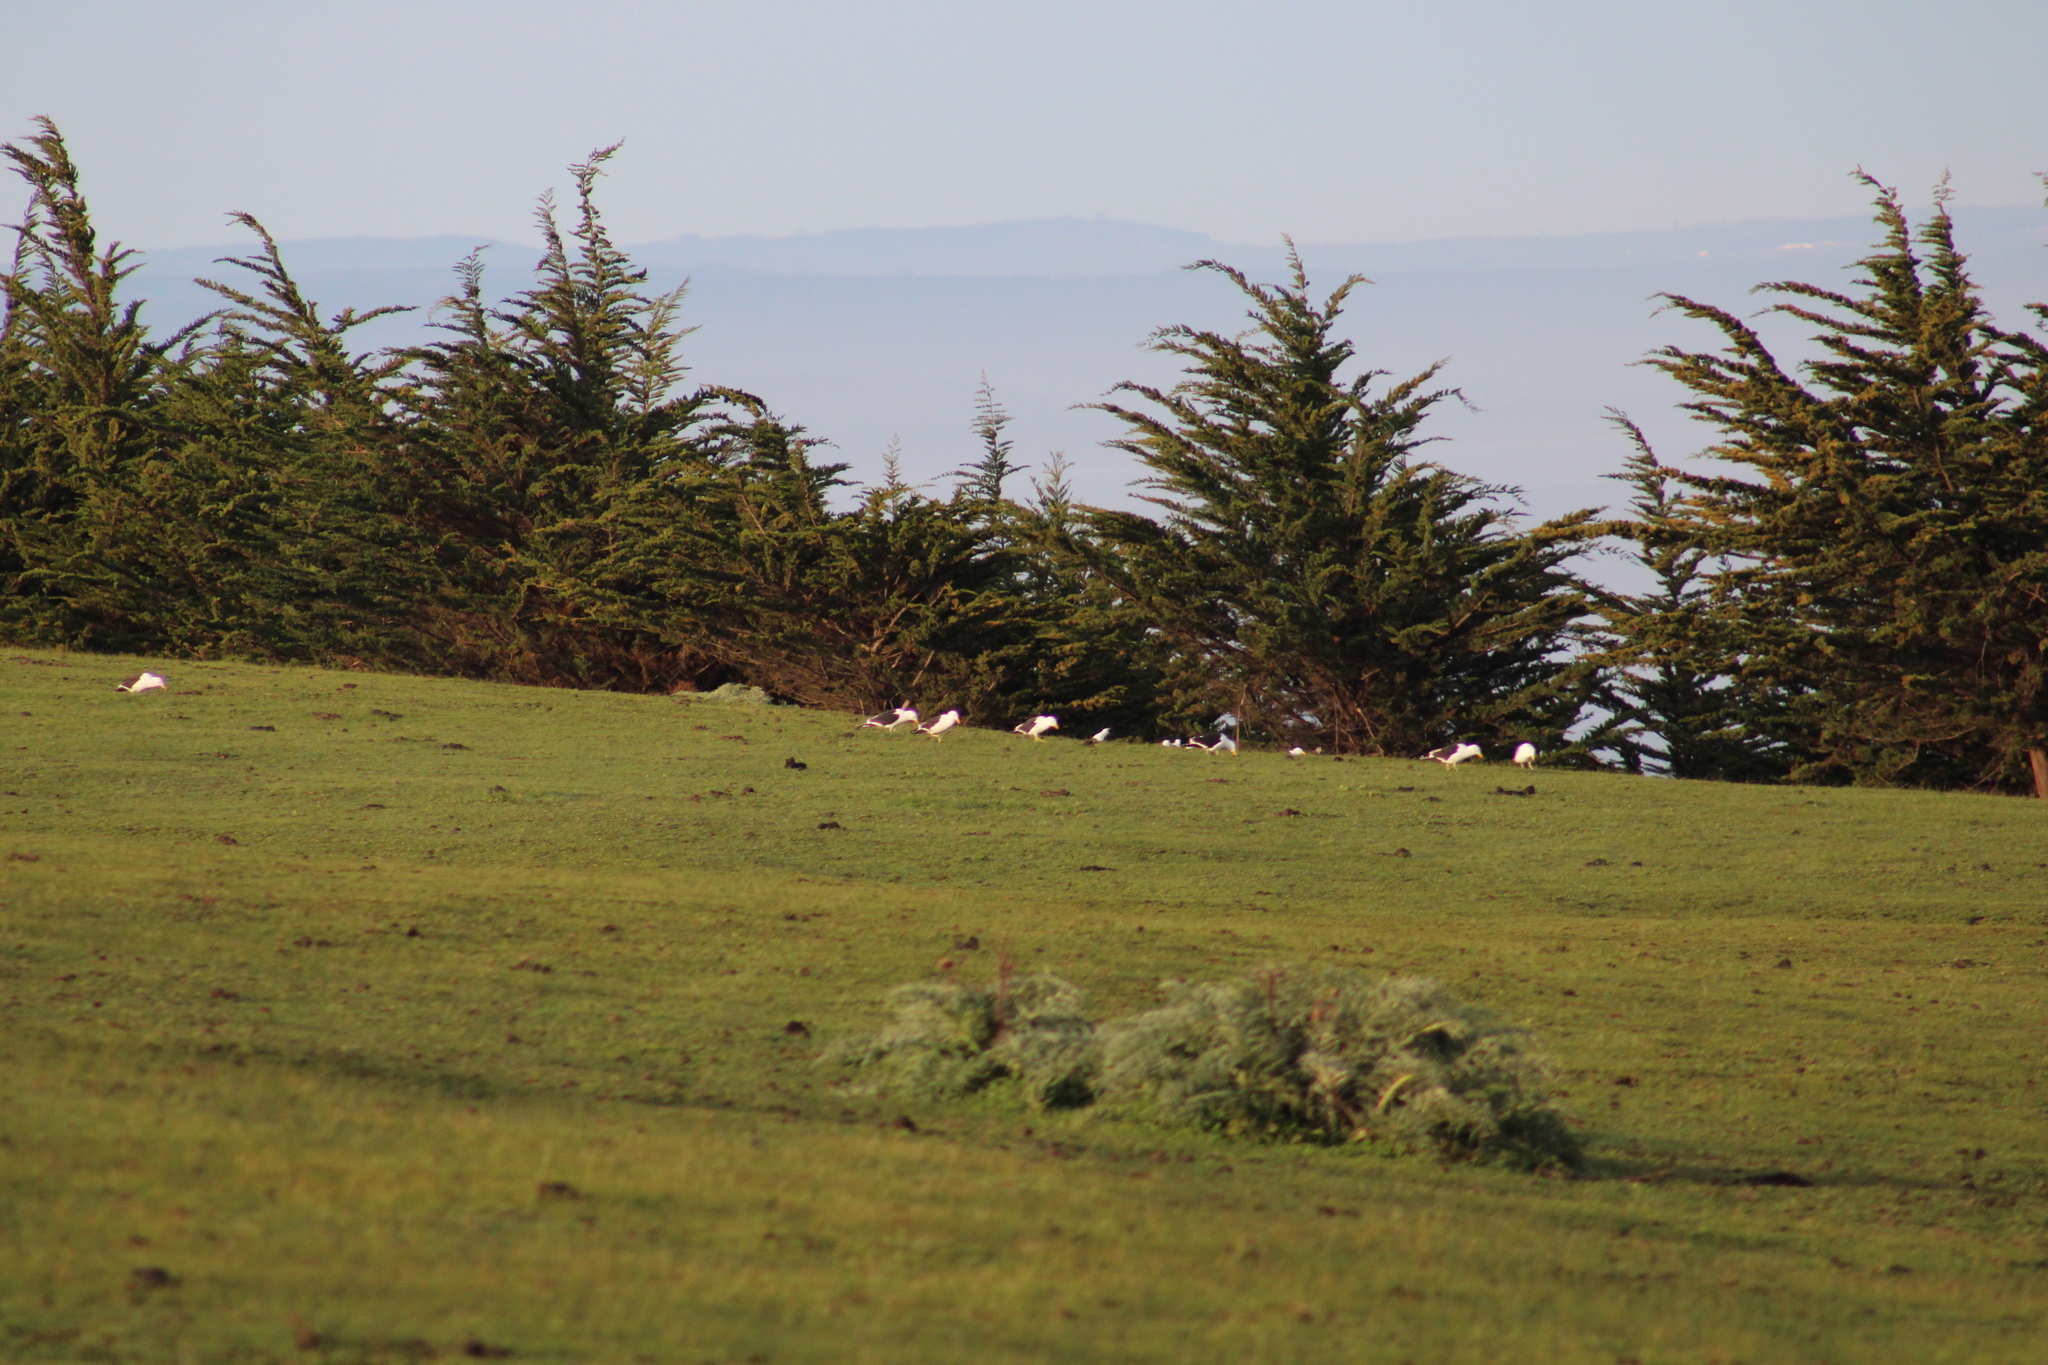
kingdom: Animalia
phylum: Chordata
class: Aves
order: Charadriiformes
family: Laridae
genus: Larus
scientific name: Larus dominicanus
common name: Kelp gull
